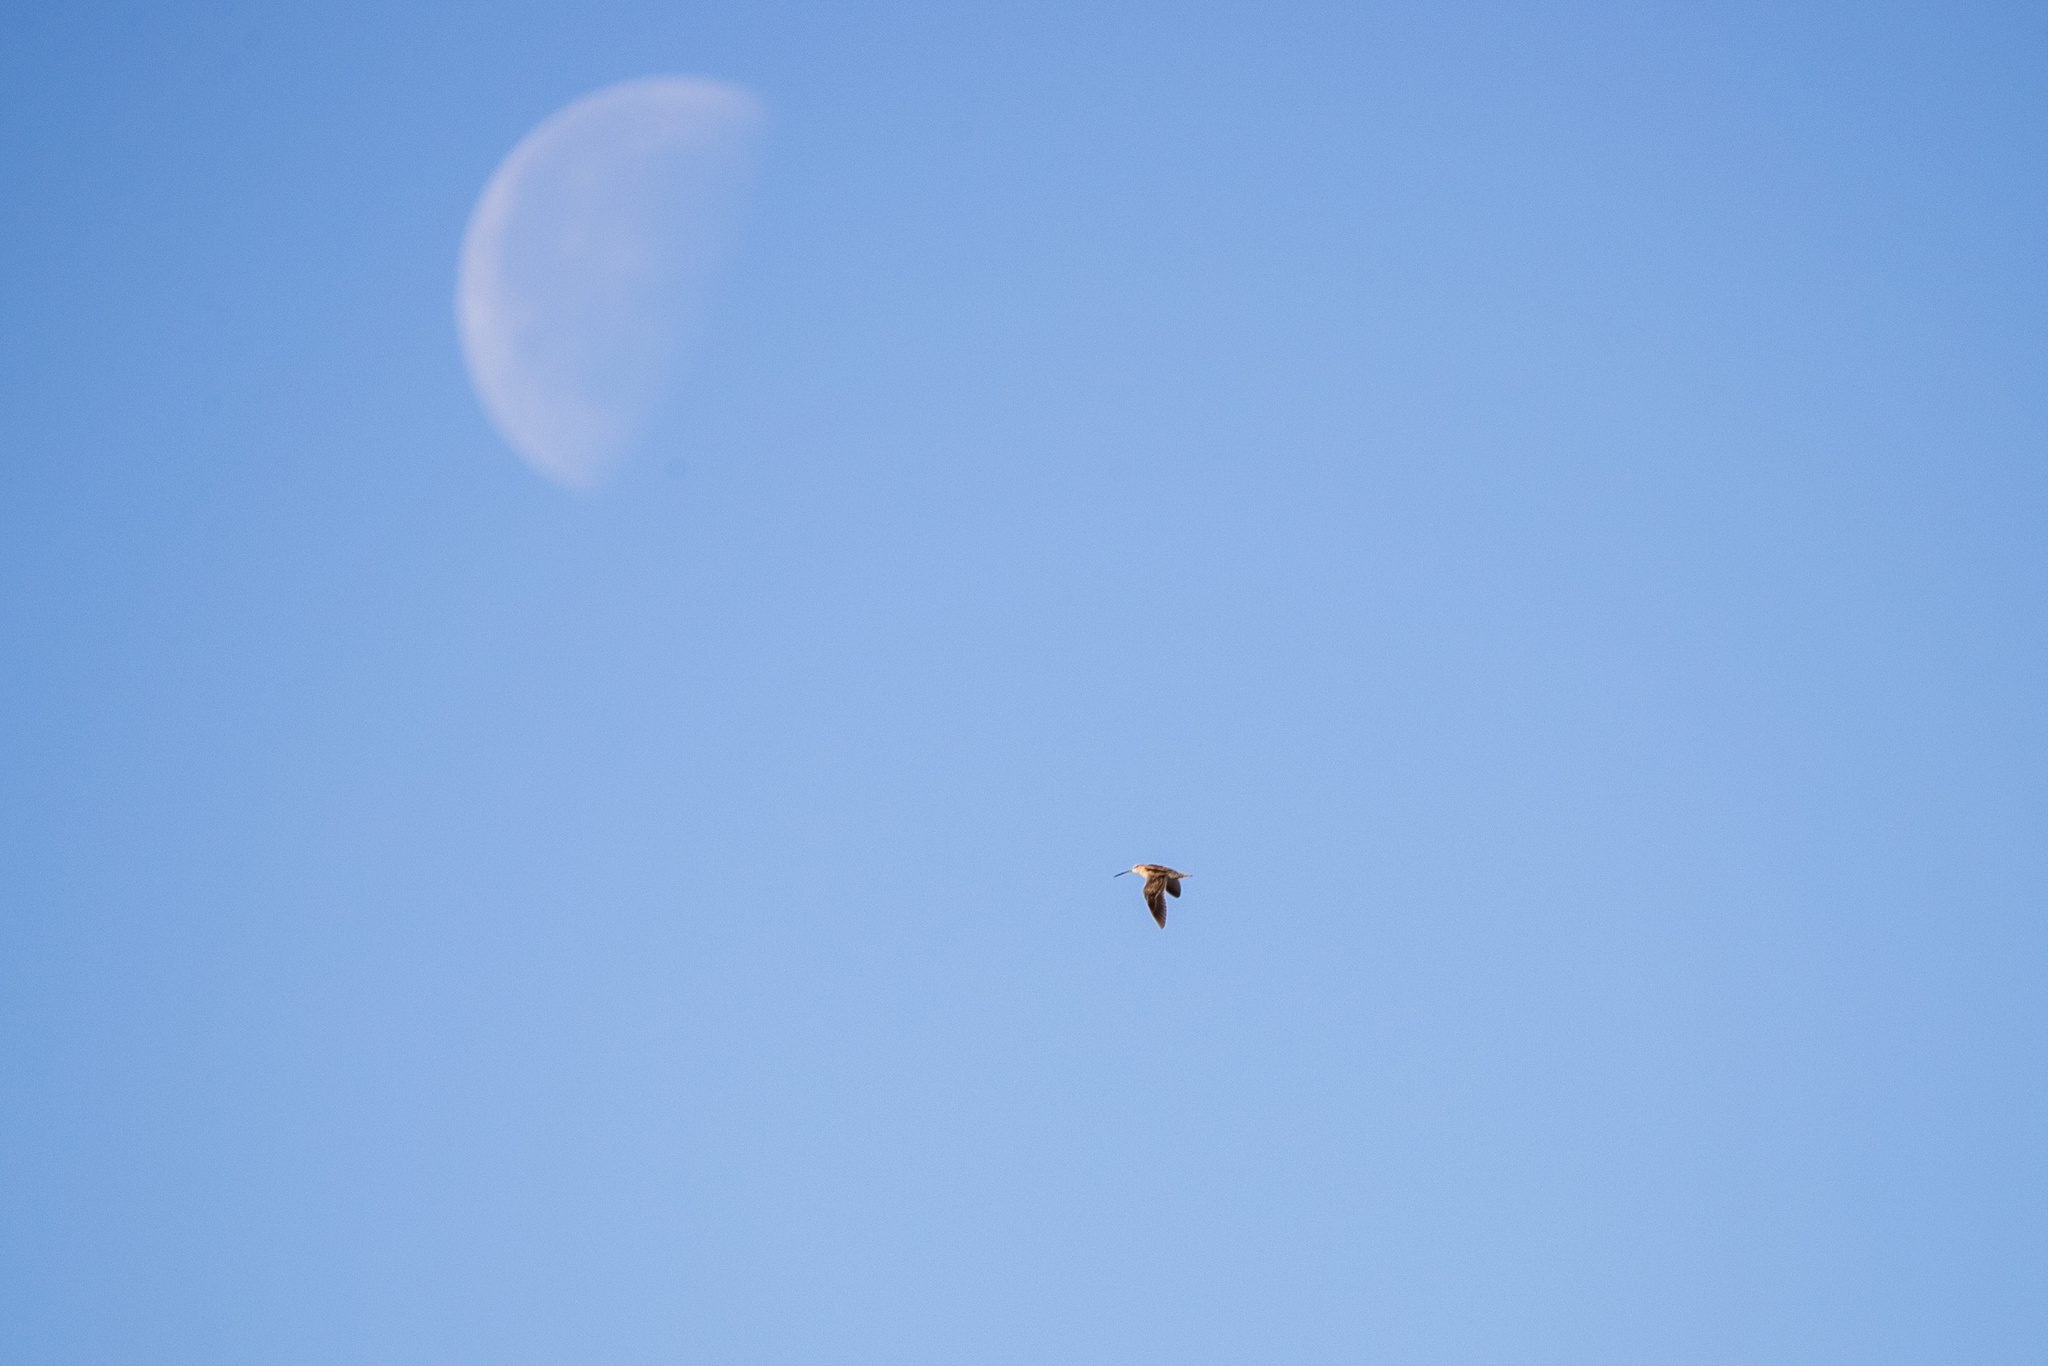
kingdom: Animalia
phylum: Chordata
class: Aves
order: Charadriiformes
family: Scolopacidae
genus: Gallinago
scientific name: Gallinago delicata
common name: Wilson's snipe
